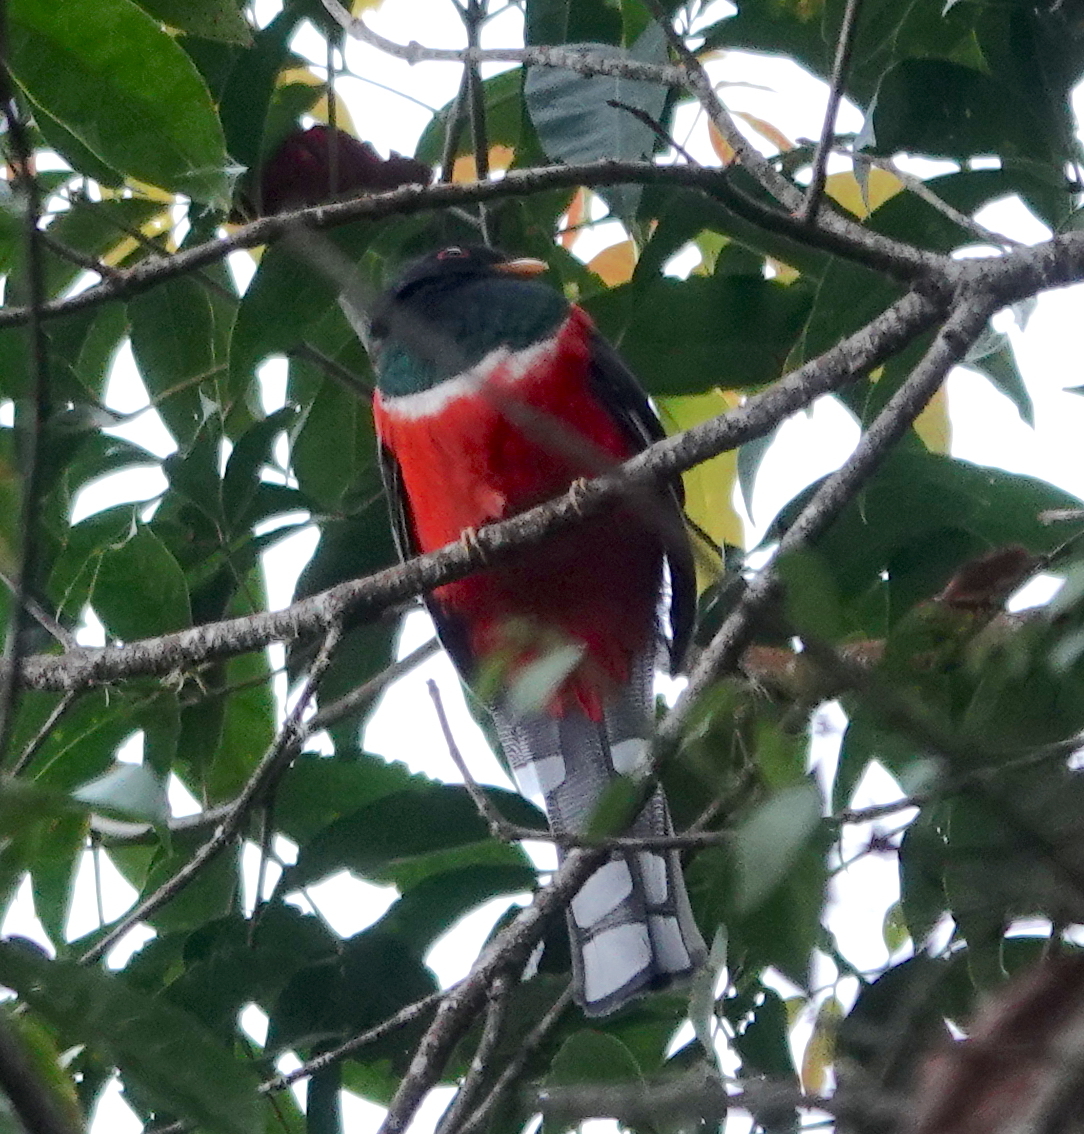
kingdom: Animalia
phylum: Chordata
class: Aves
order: Trogoniformes
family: Trogonidae
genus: Trogon
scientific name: Trogon personatus
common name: Masked trogon
